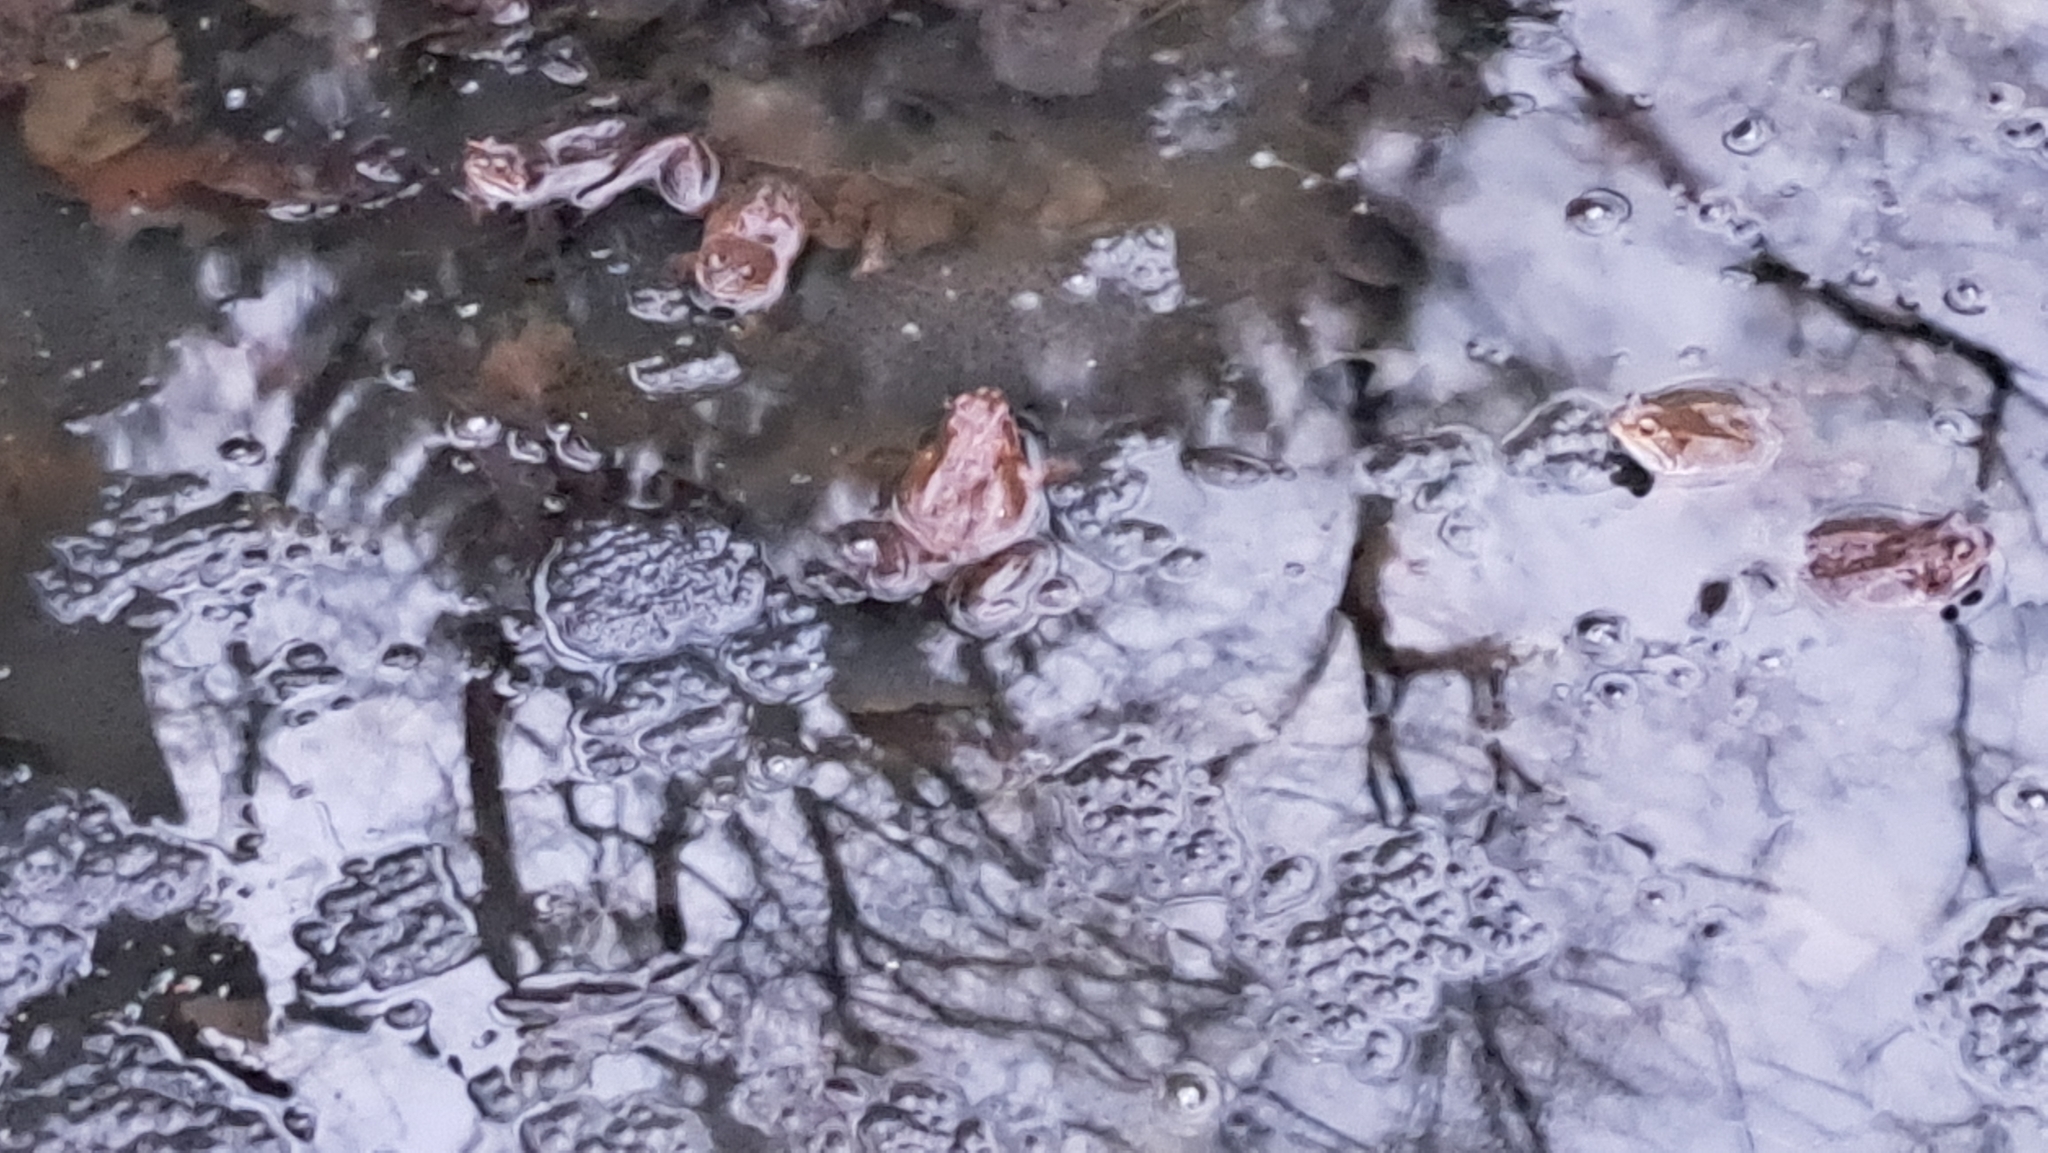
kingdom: Animalia
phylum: Chordata
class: Amphibia
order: Anura
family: Ranidae
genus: Rana
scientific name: Rana temporaria
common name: Common frog
